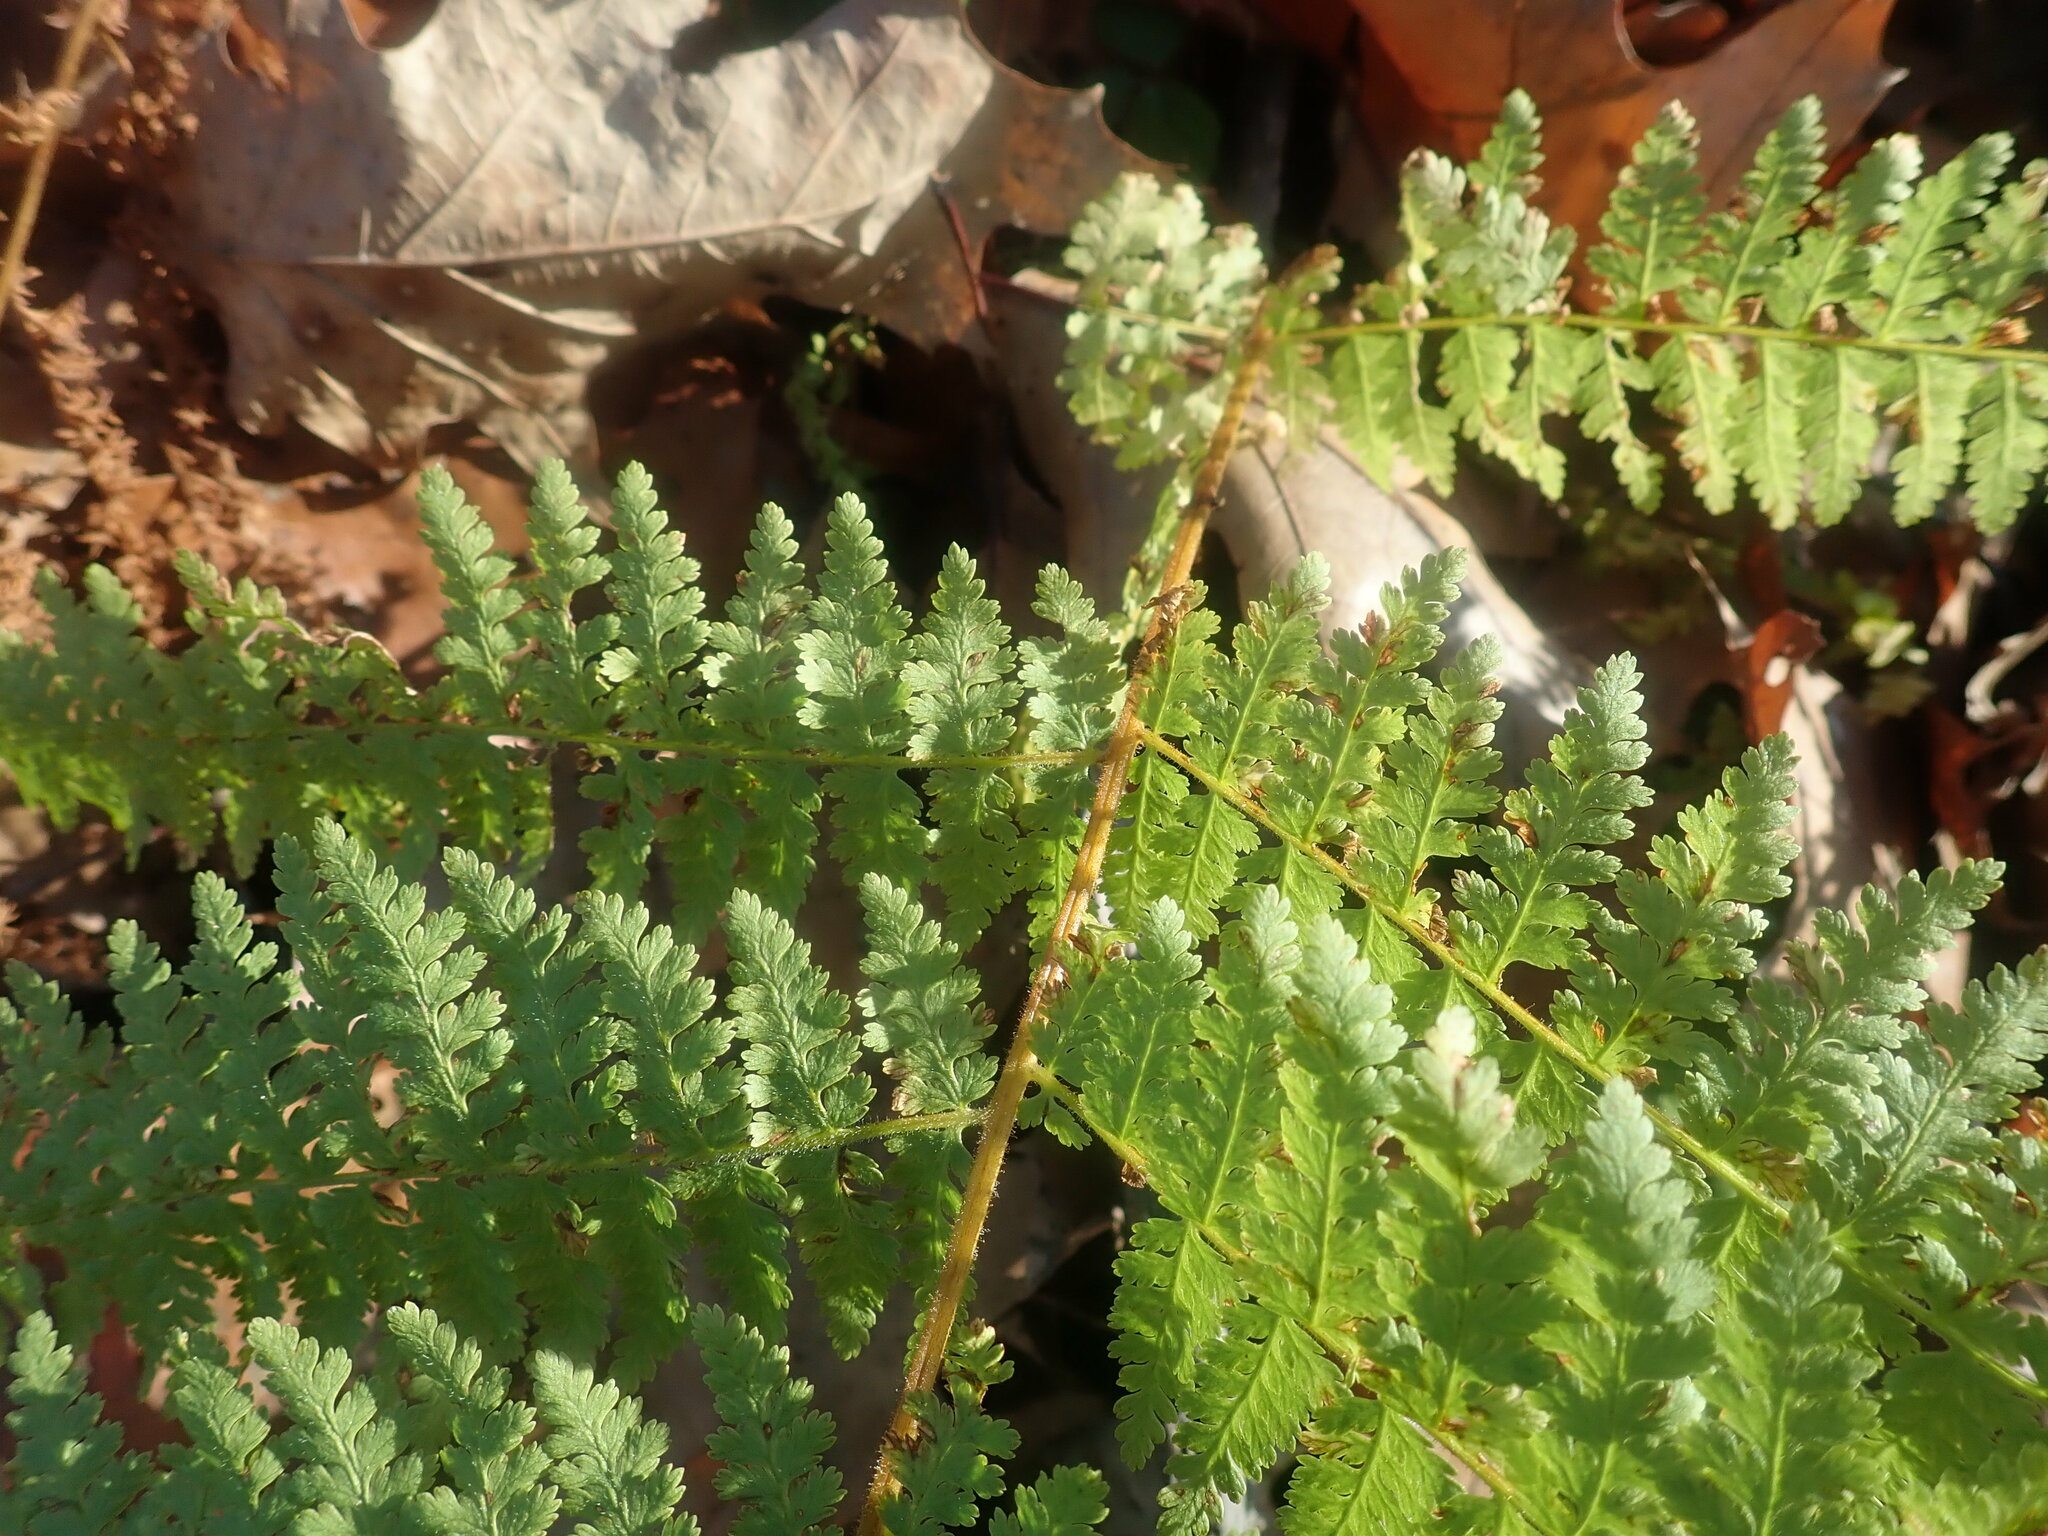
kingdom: Plantae
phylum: Tracheophyta
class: Polypodiopsida
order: Polypodiales
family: Dryopteridaceae
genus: Dryopteris
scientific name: Dryopteris intermedia
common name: Evergreen wood fern
